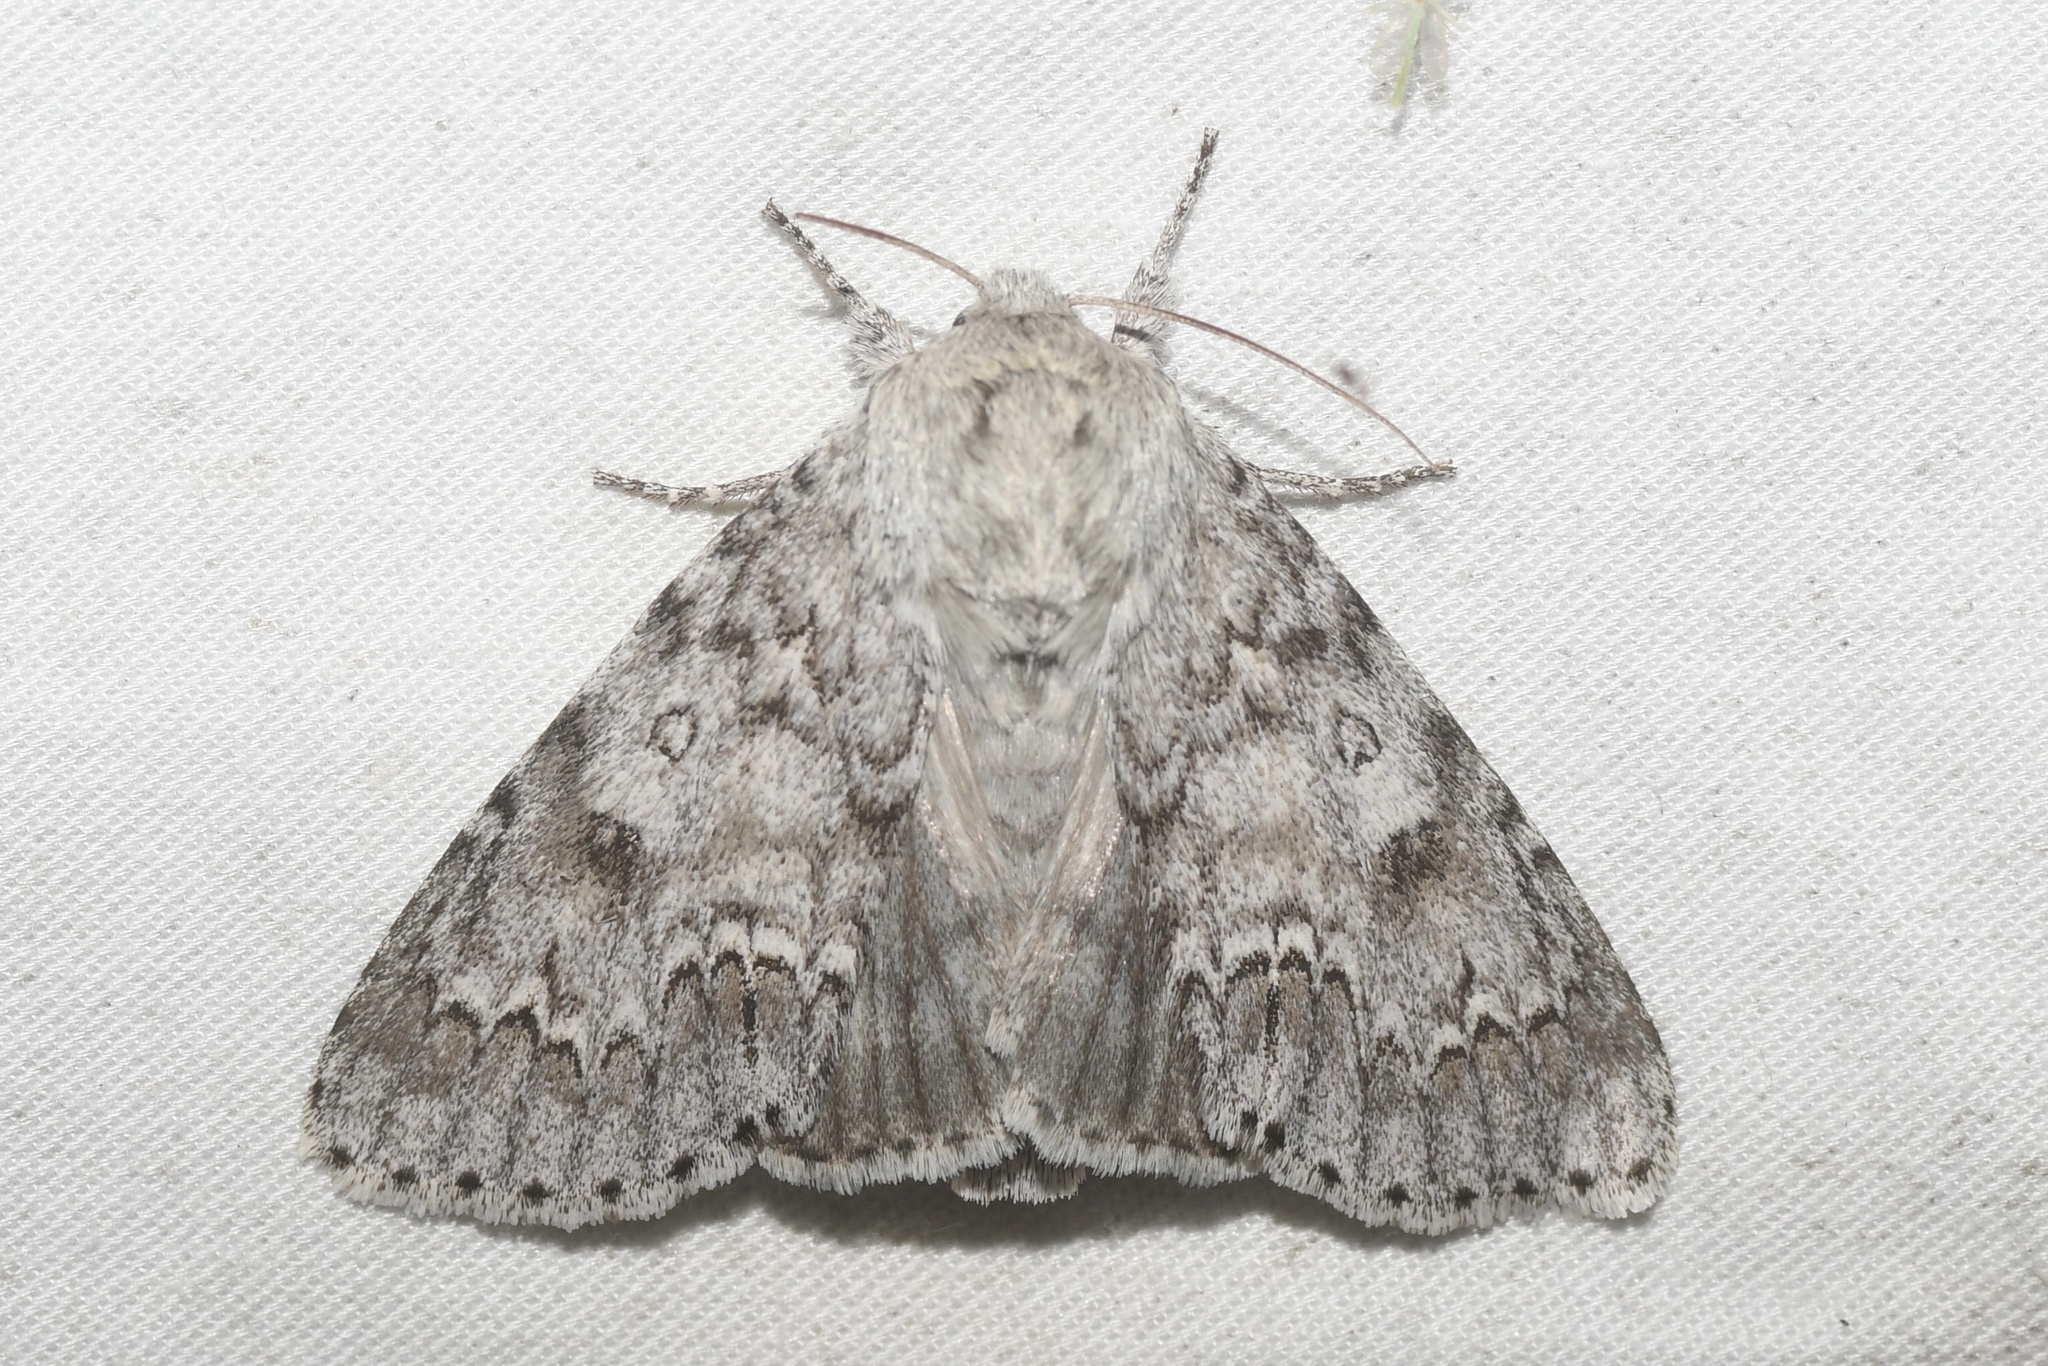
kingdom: Animalia
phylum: Arthropoda
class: Insecta
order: Lepidoptera
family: Noctuidae
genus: Acronicta
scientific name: Acronicta americana
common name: American dagger
